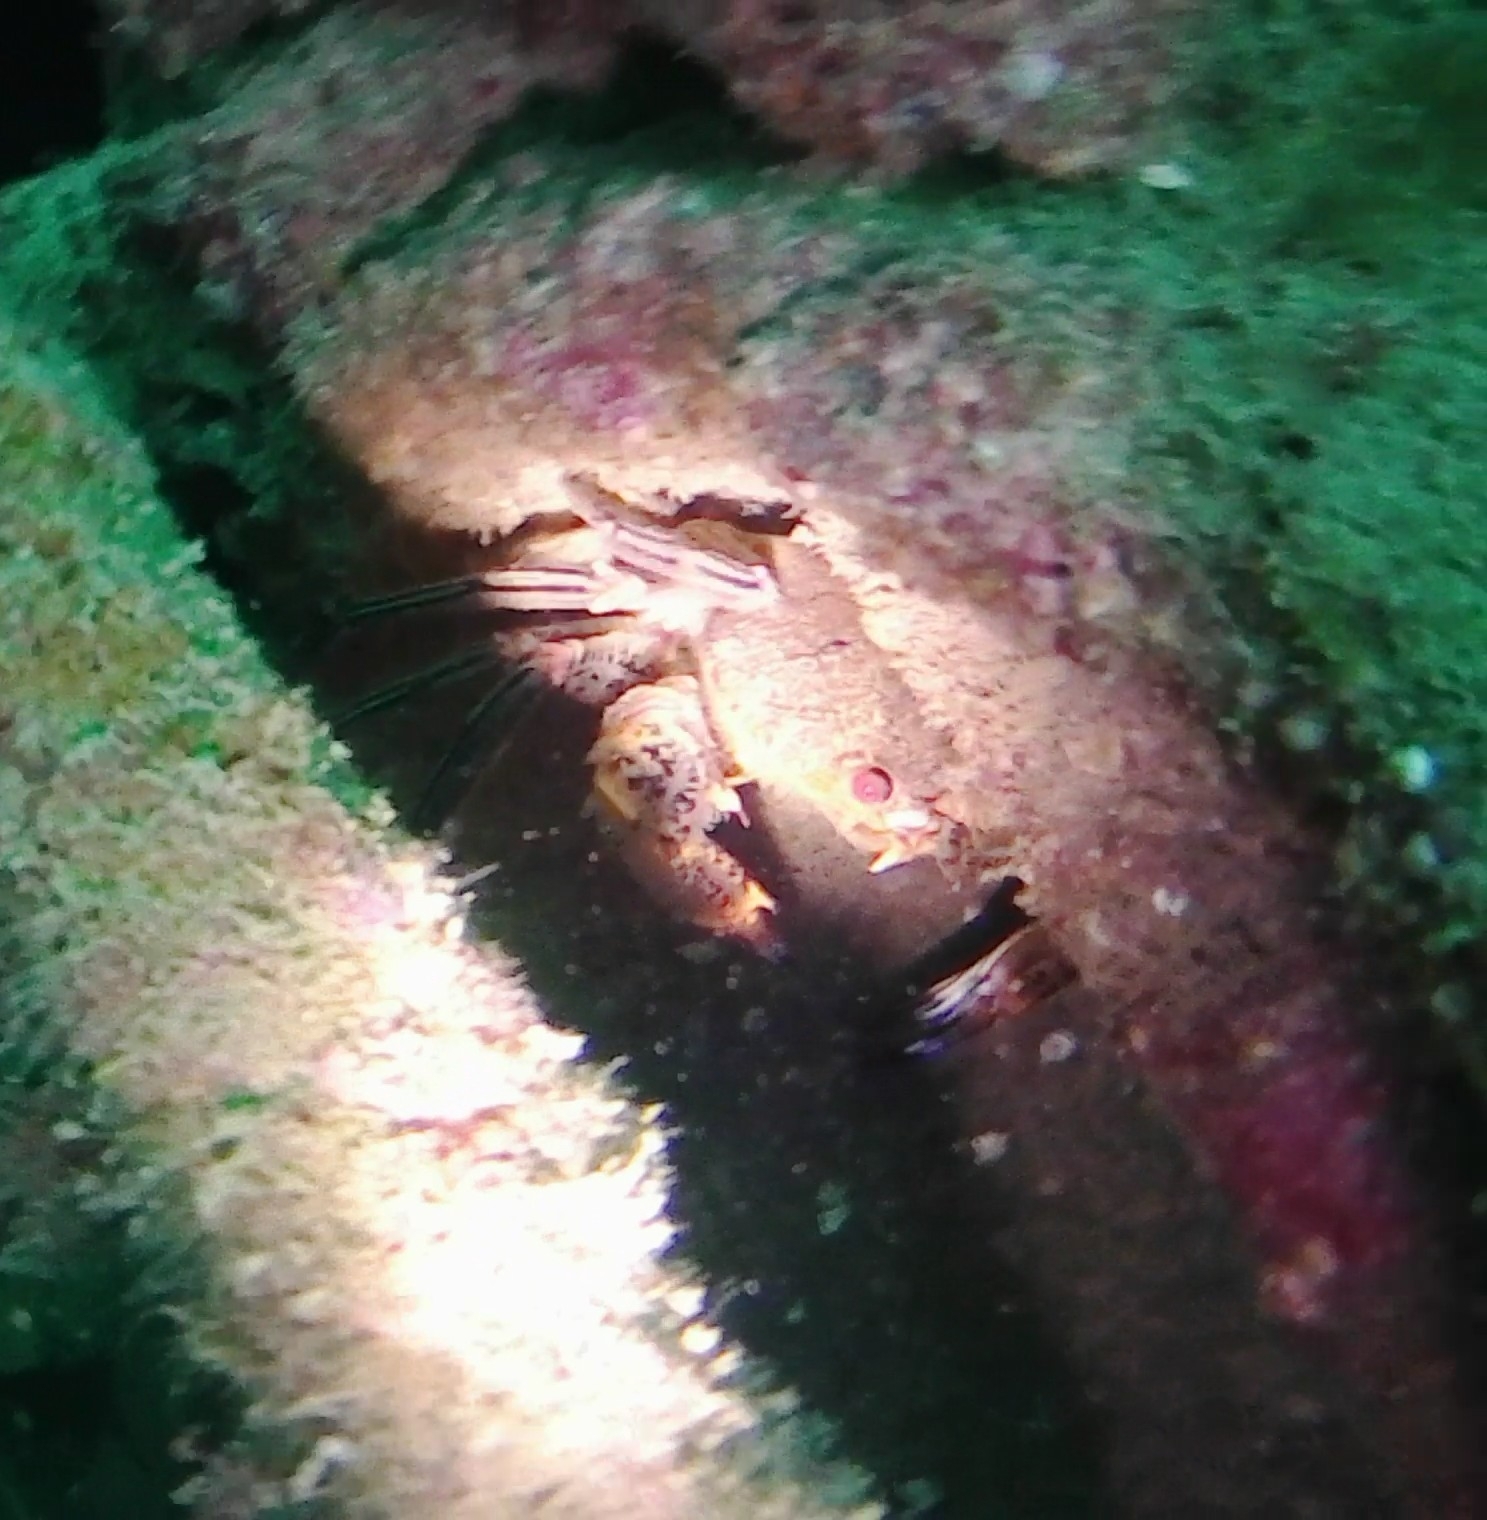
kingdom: Animalia
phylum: Arthropoda
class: Malacostraca
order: Decapoda
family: Polybiidae
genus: Necora
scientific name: Necora puber
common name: Velvet swimming crab
